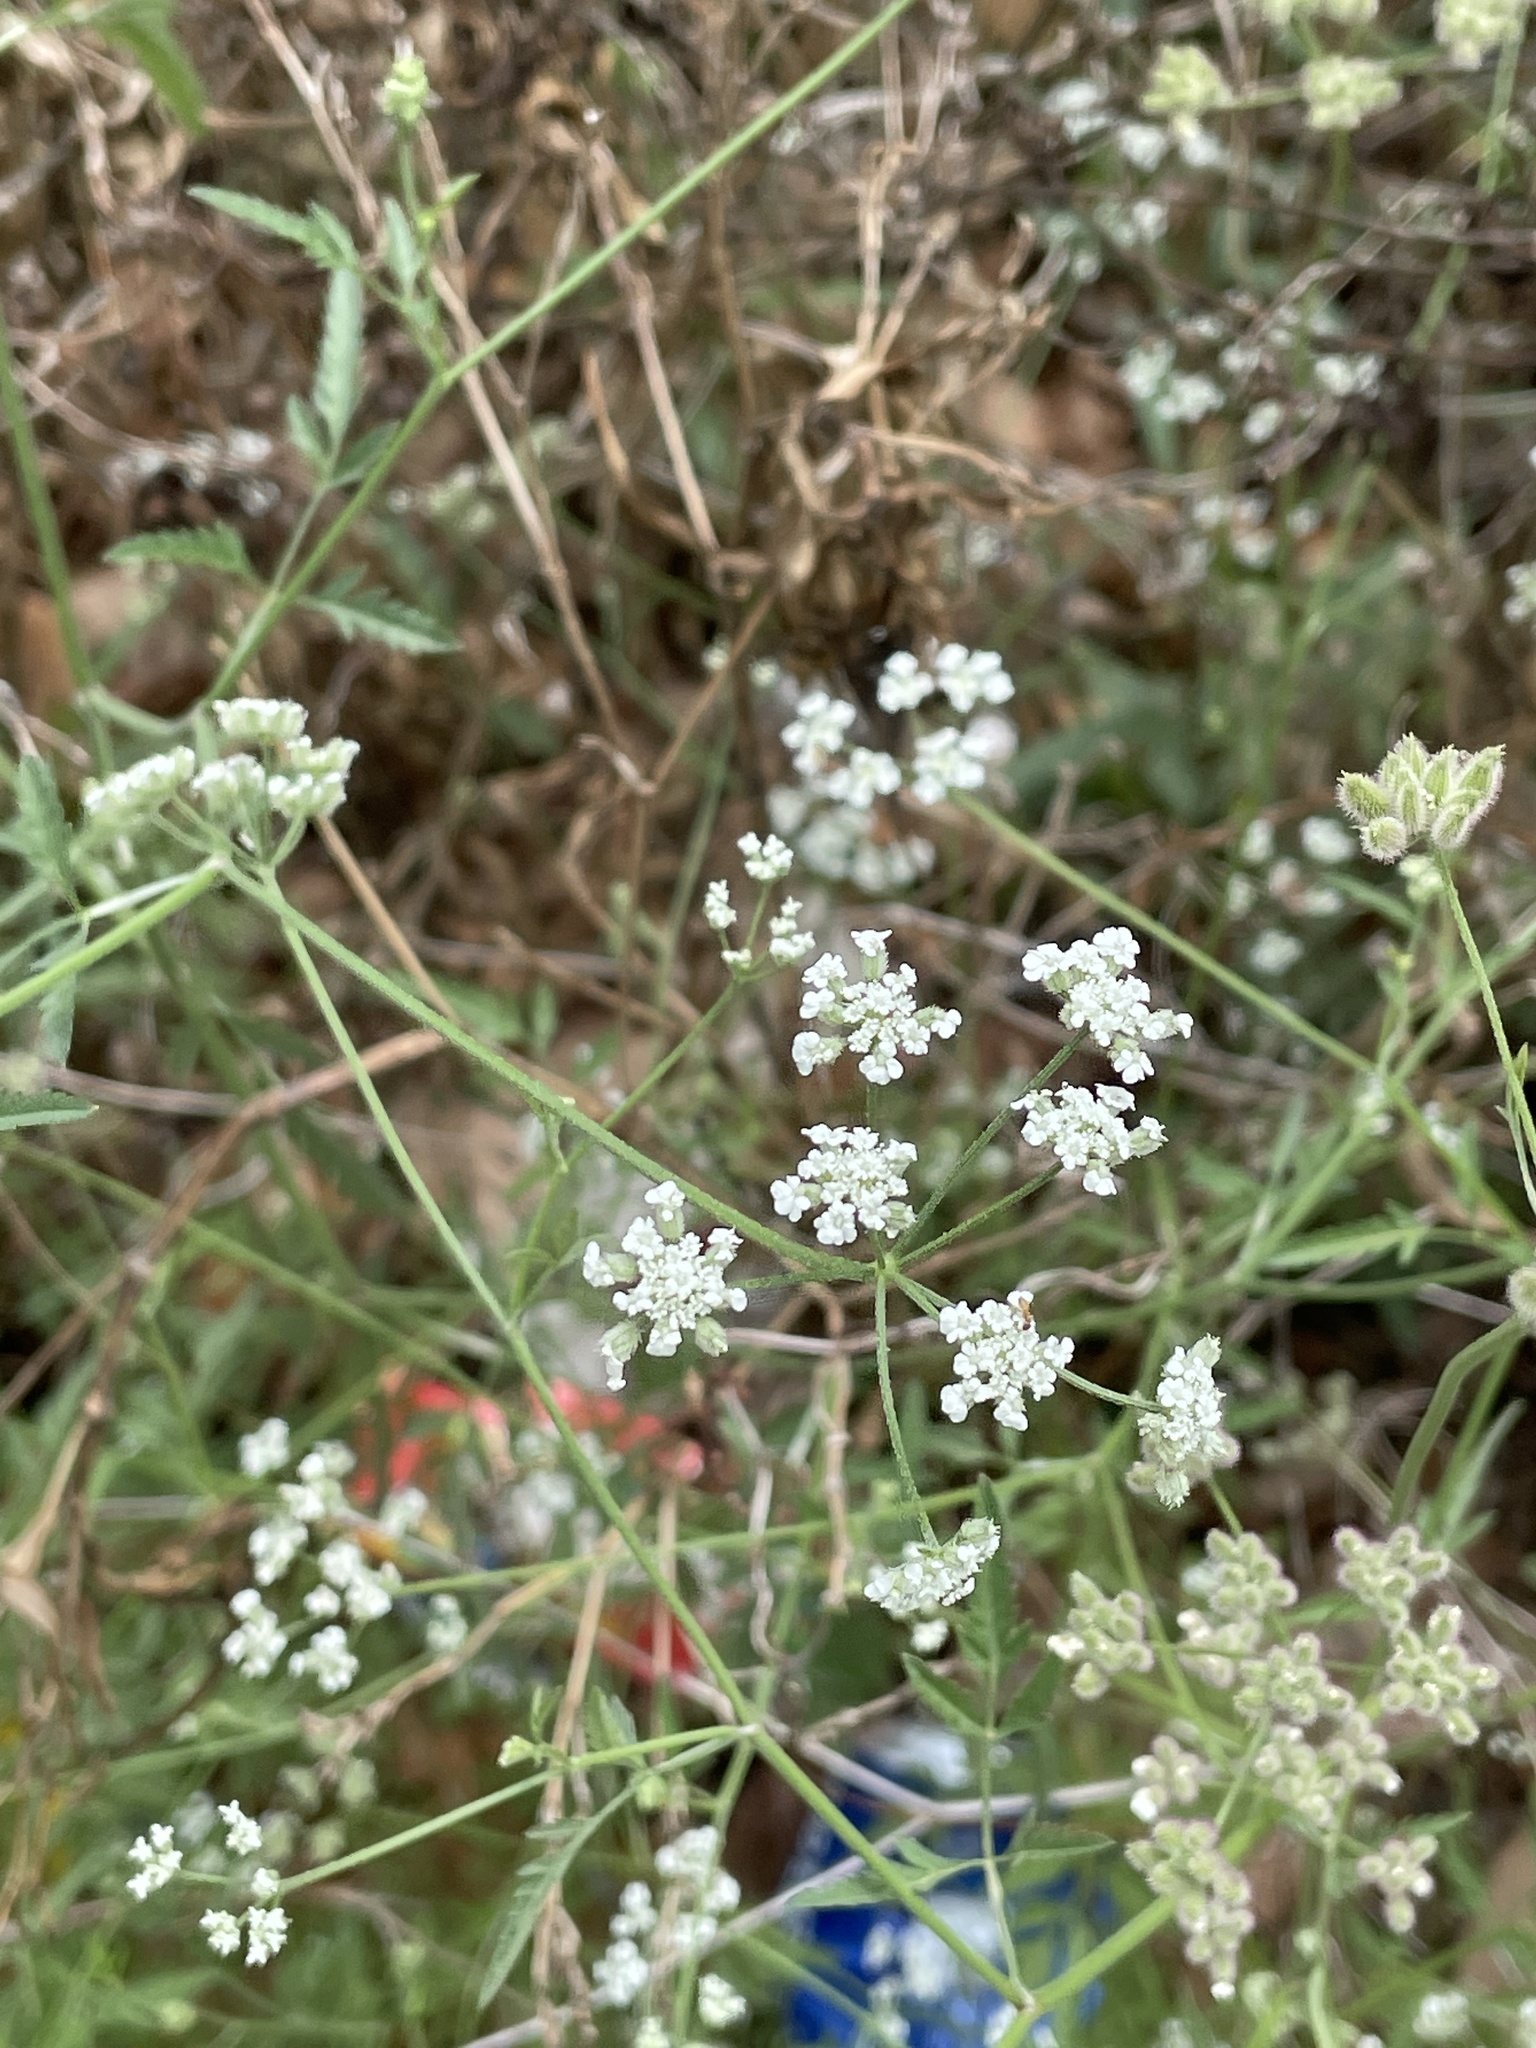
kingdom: Plantae
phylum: Tracheophyta
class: Magnoliopsida
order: Apiales
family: Apiaceae
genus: Torilis
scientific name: Torilis arvensis
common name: Spreading hedge-parsley
